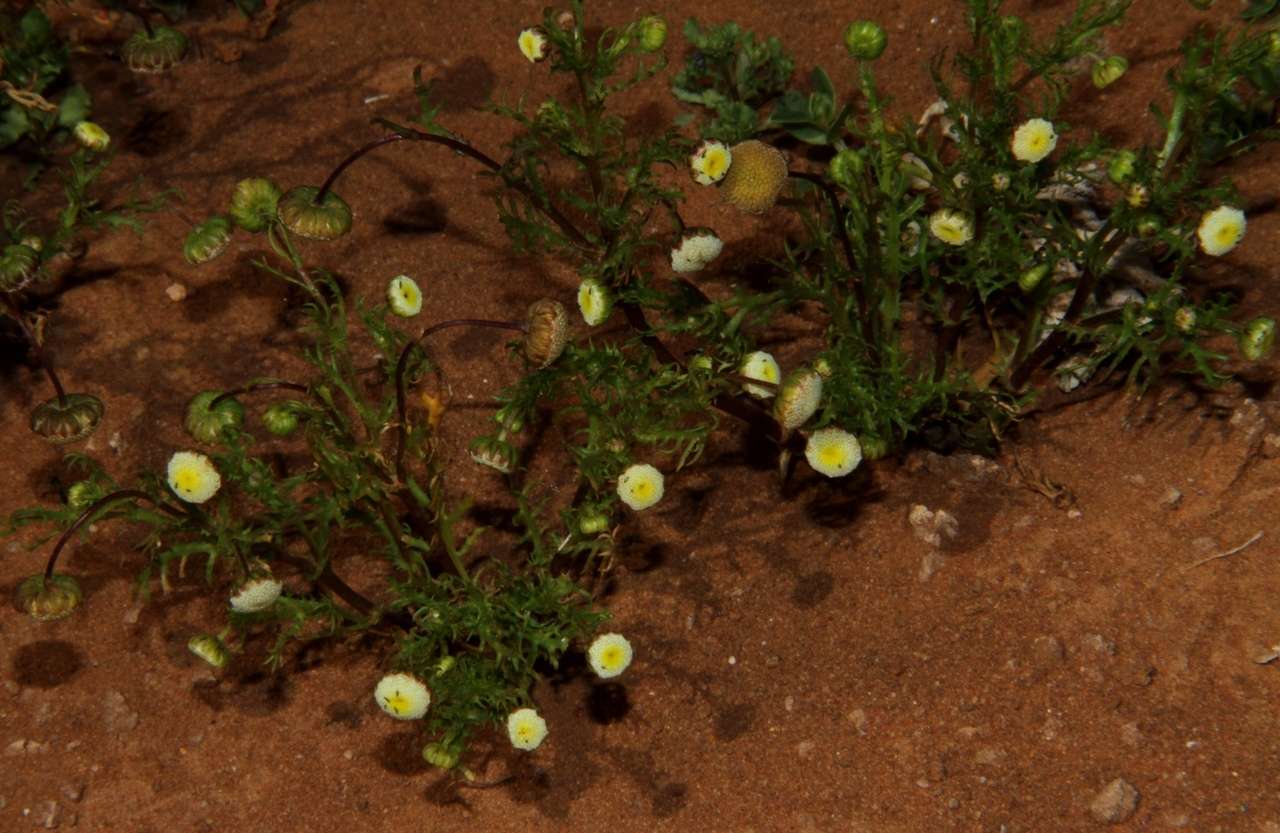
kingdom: Plantae
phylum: Tracheophyta
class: Magnoliopsida
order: Asterales
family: Asteraceae
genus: Cotula
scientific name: Cotula bipinnata
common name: Ferny buttonweed
